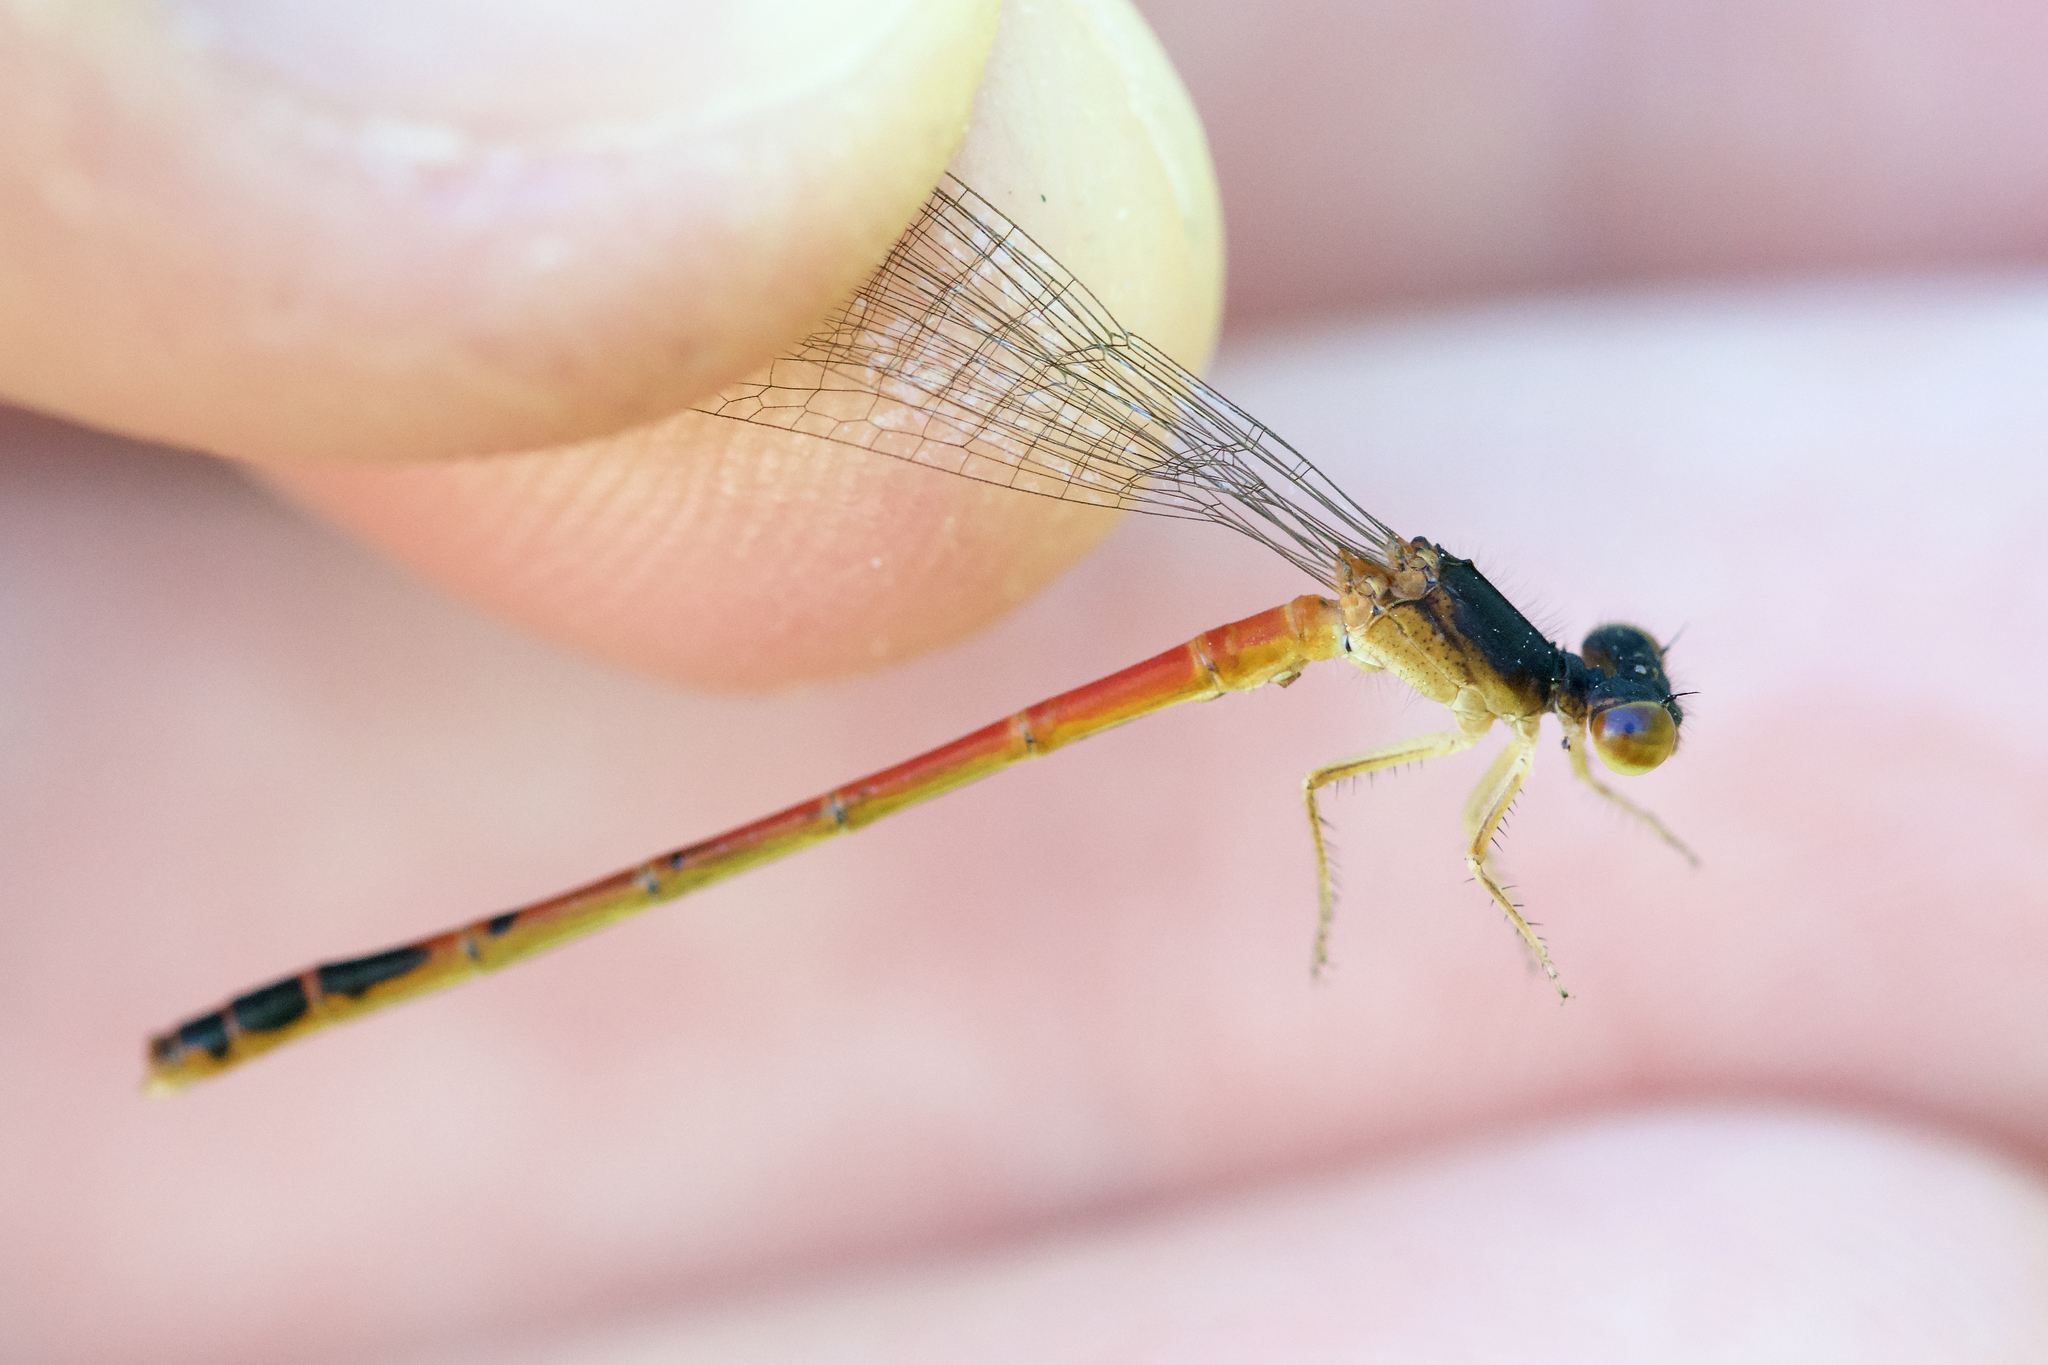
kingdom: Animalia
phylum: Arthropoda
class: Insecta
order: Odonata
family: Coenagrionidae
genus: Amphiagrion
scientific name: Amphiagrion saucium
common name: Eastern red damsel
